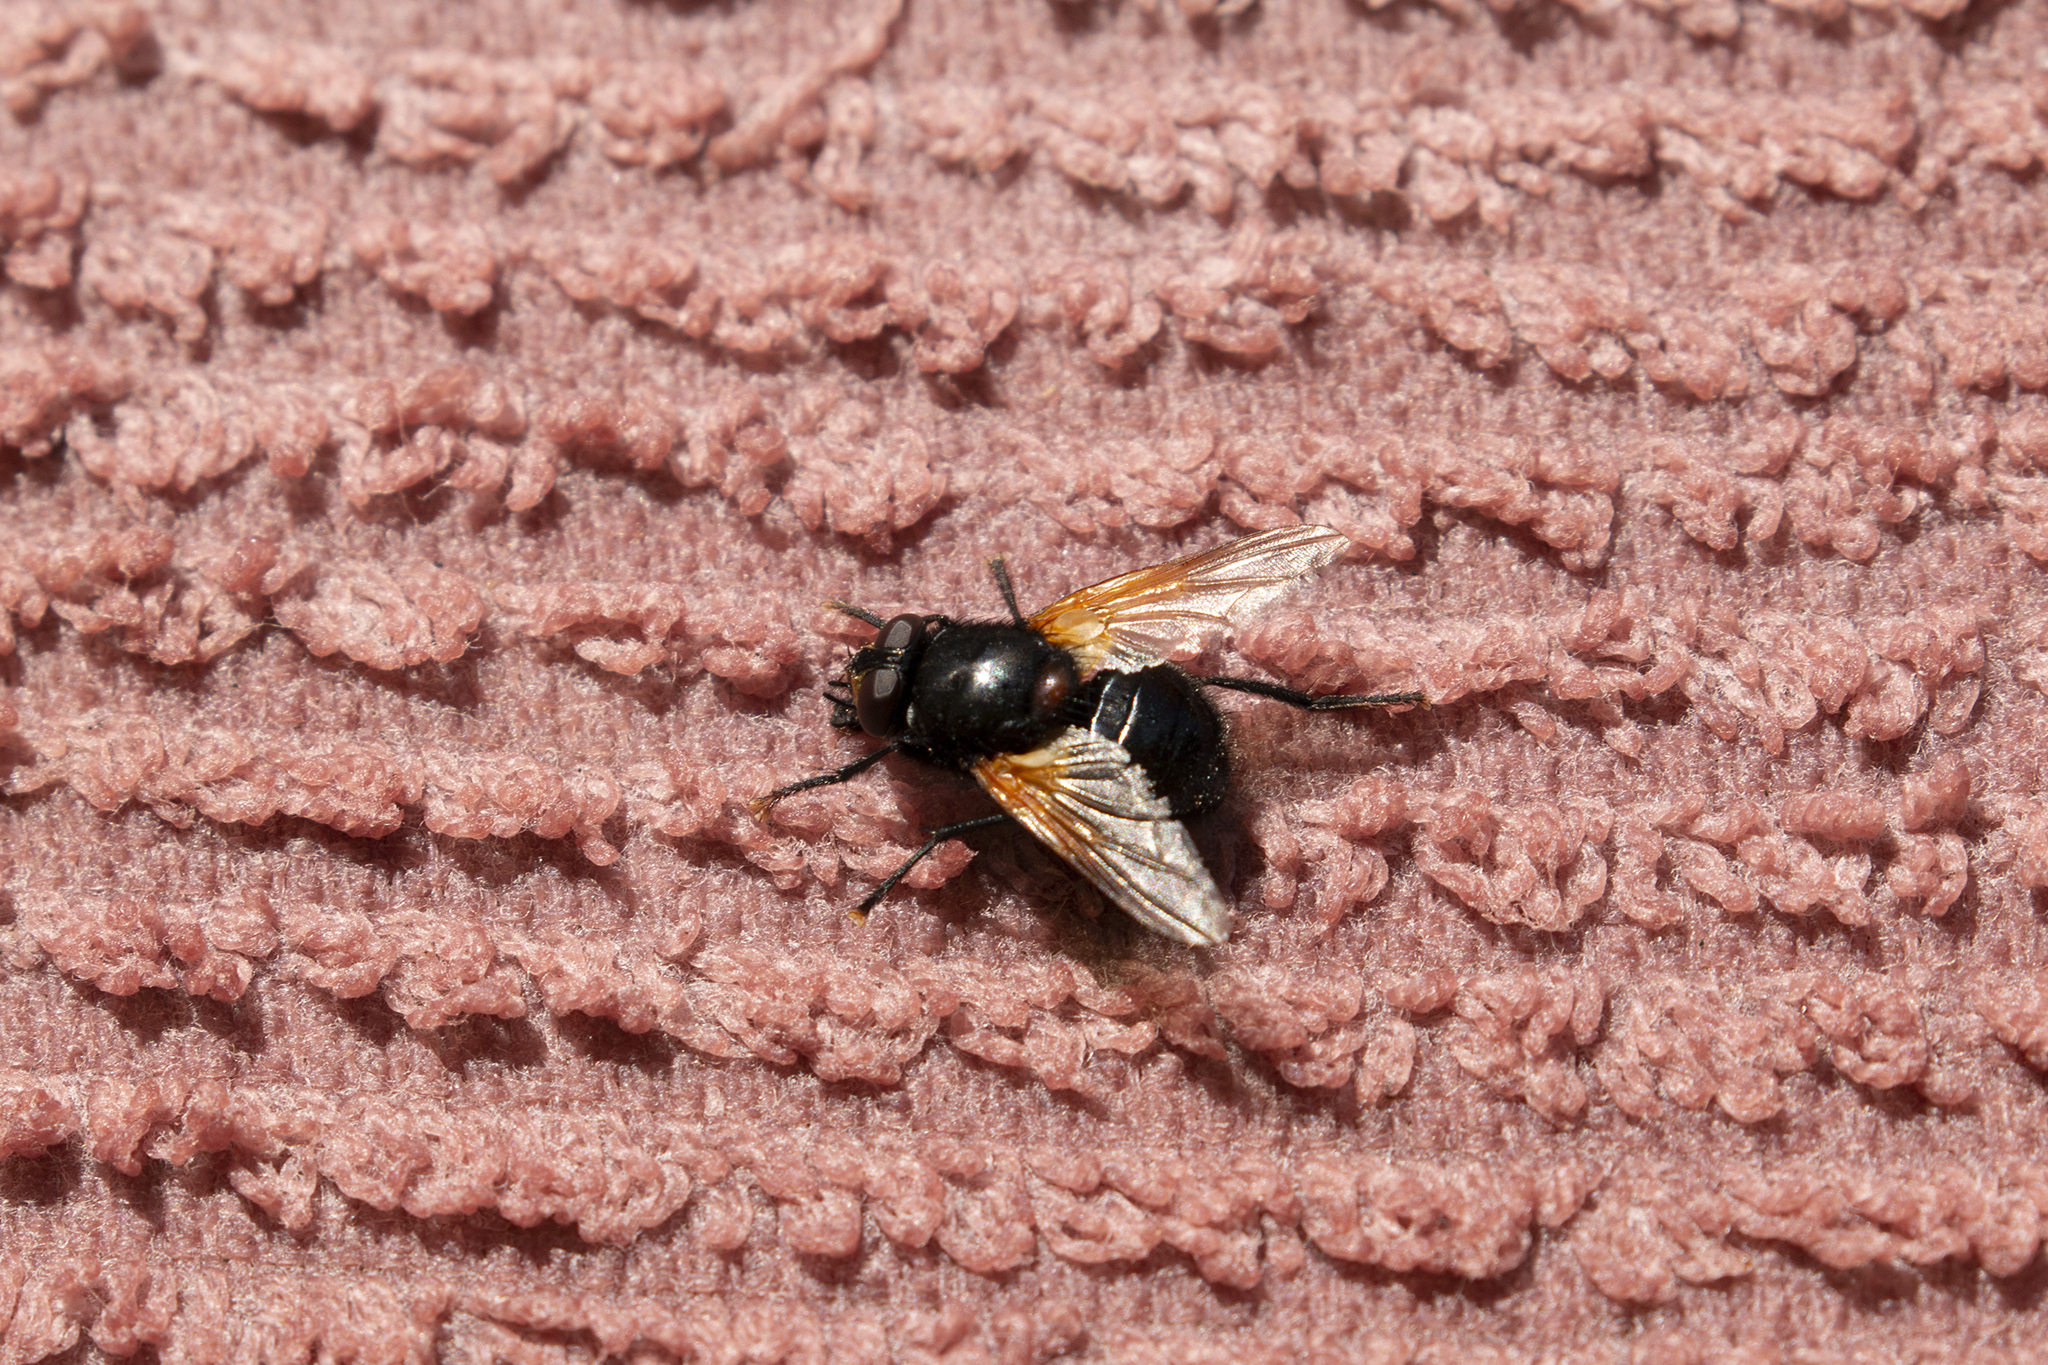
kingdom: Animalia
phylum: Arthropoda
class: Insecta
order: Diptera
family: Muscidae
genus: Mesembrina
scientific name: Mesembrina meridiana
